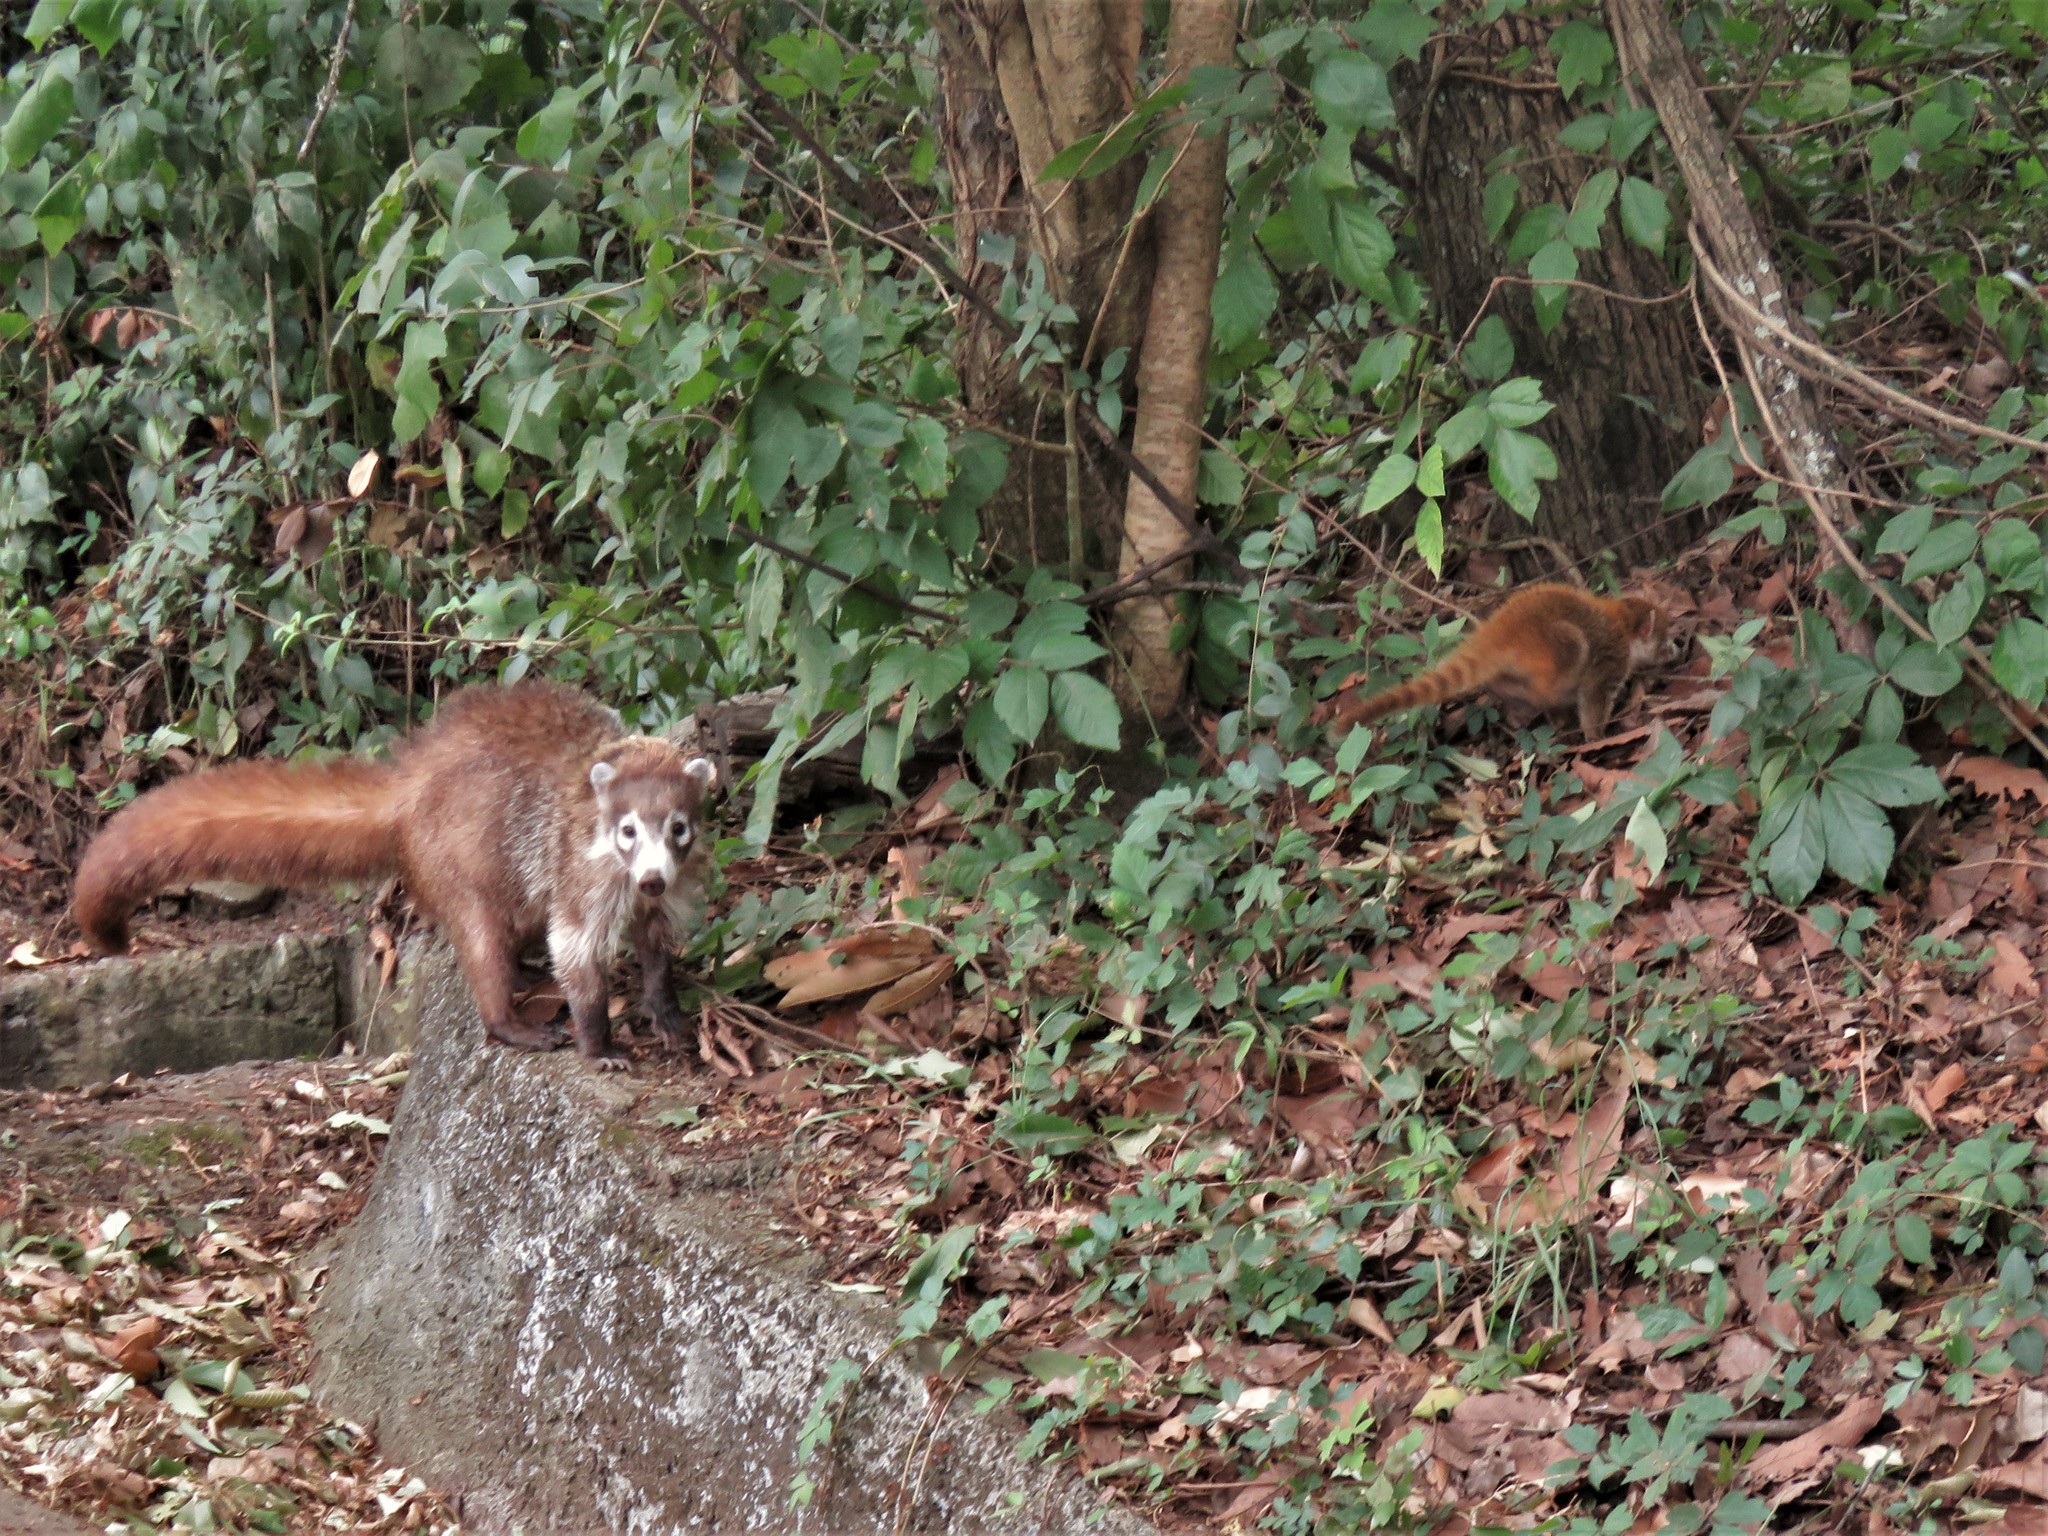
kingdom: Animalia
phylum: Chordata
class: Mammalia
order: Carnivora
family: Procyonidae
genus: Nasua
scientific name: Nasua narica
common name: White-nosed coati
